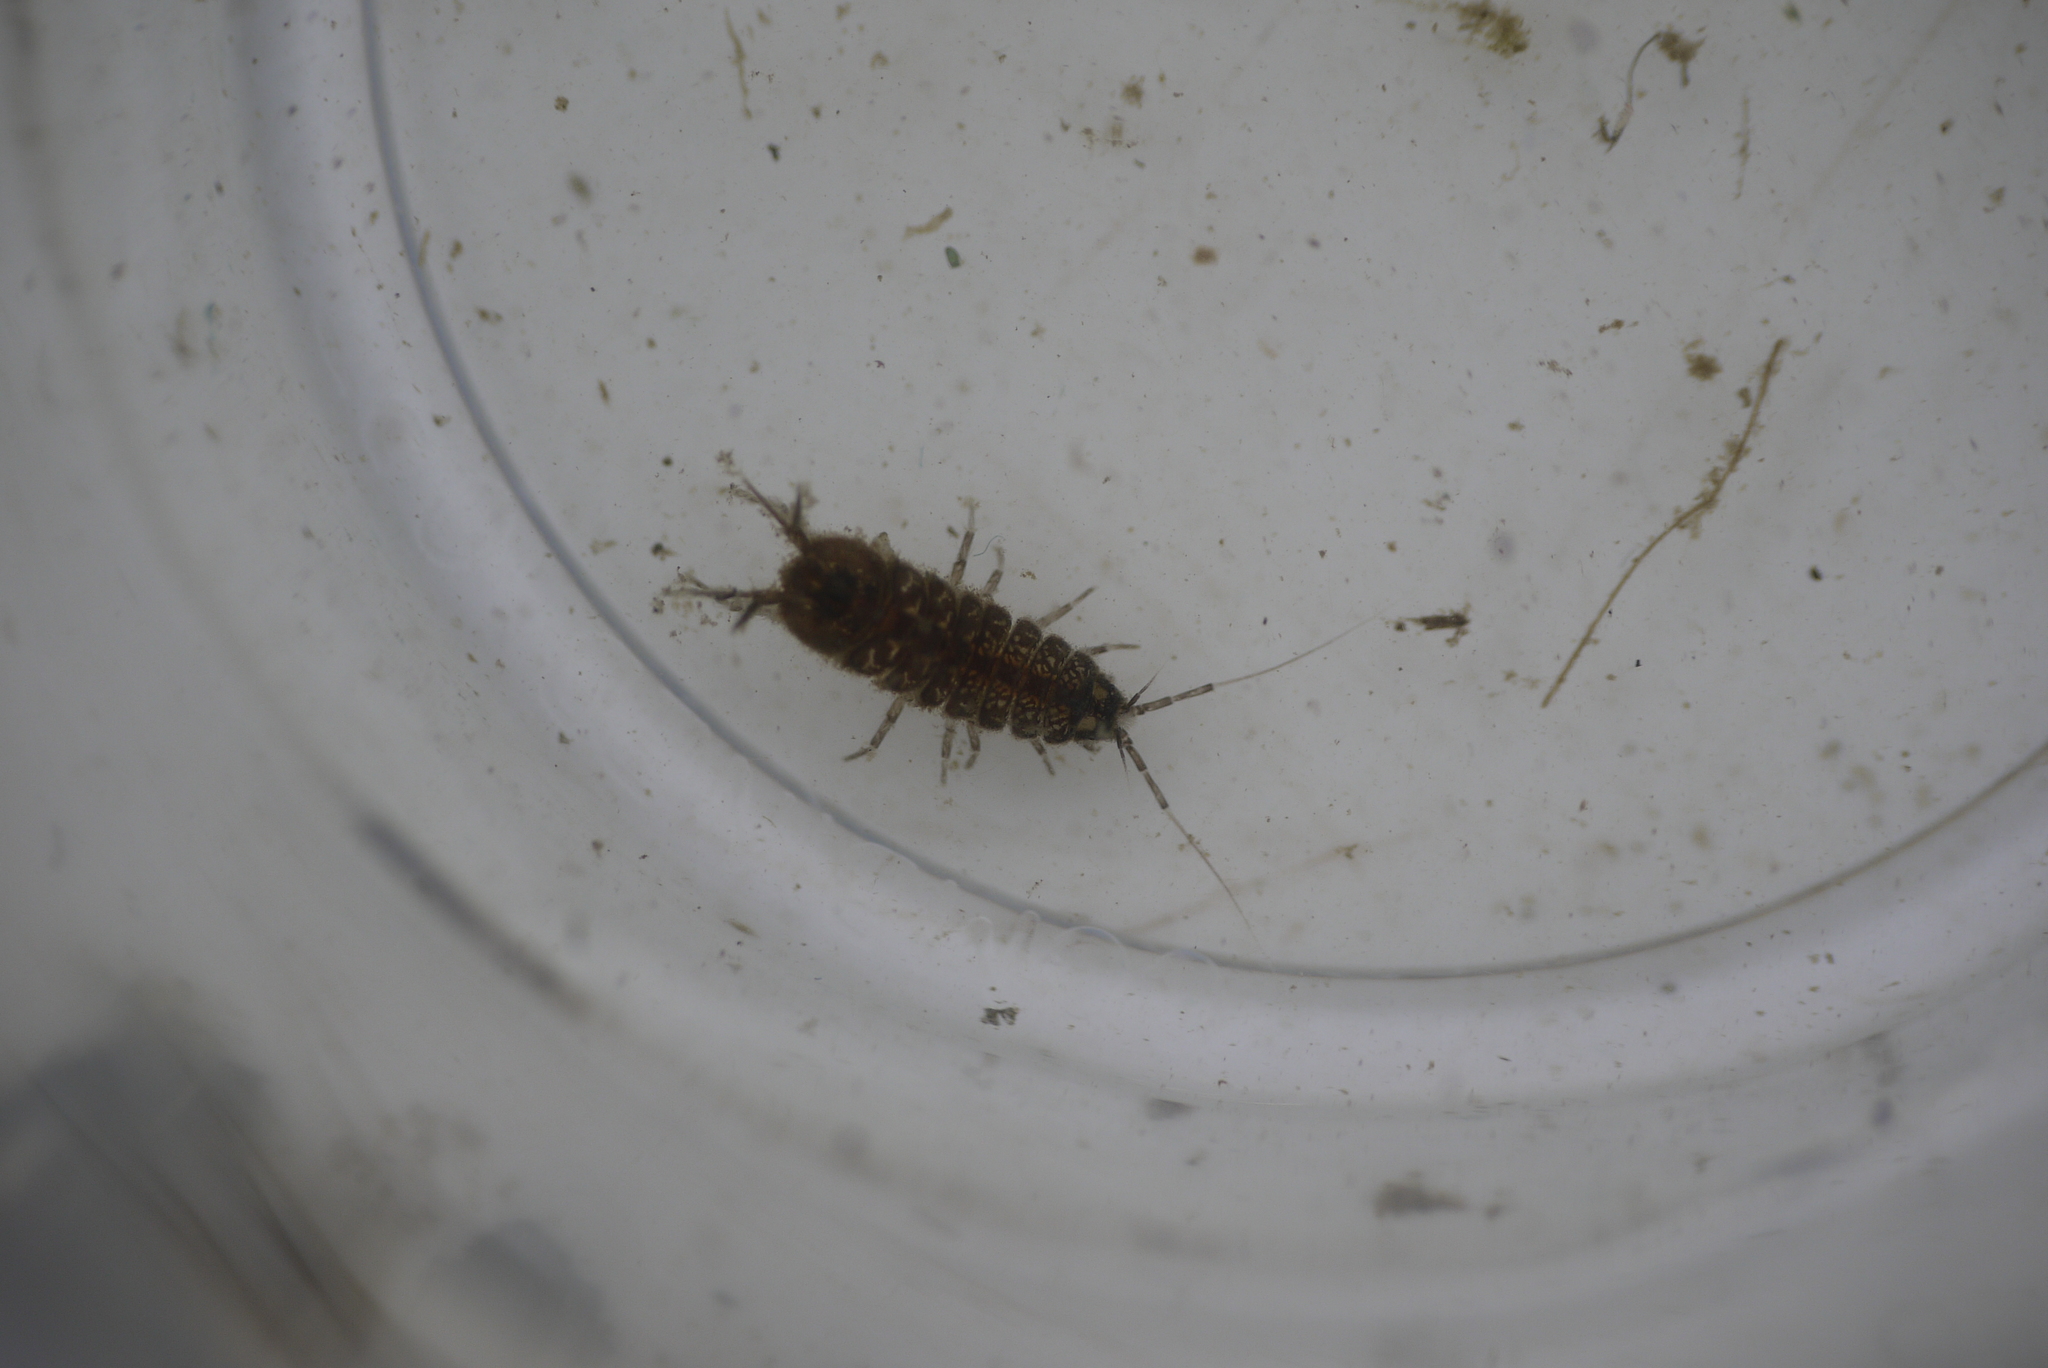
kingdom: Animalia
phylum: Arthropoda
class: Malacostraca
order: Isopoda
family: Asellidae
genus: Asellus
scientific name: Asellus aquaticus
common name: Water hog lice/slaters
